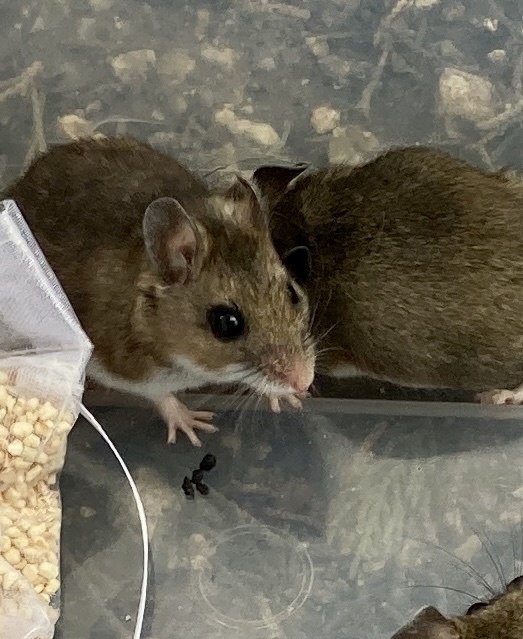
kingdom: Animalia
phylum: Chordata
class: Mammalia
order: Rodentia
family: Cricetidae
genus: Peromyscus
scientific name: Peromyscus maniculatus
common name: Deer mouse
